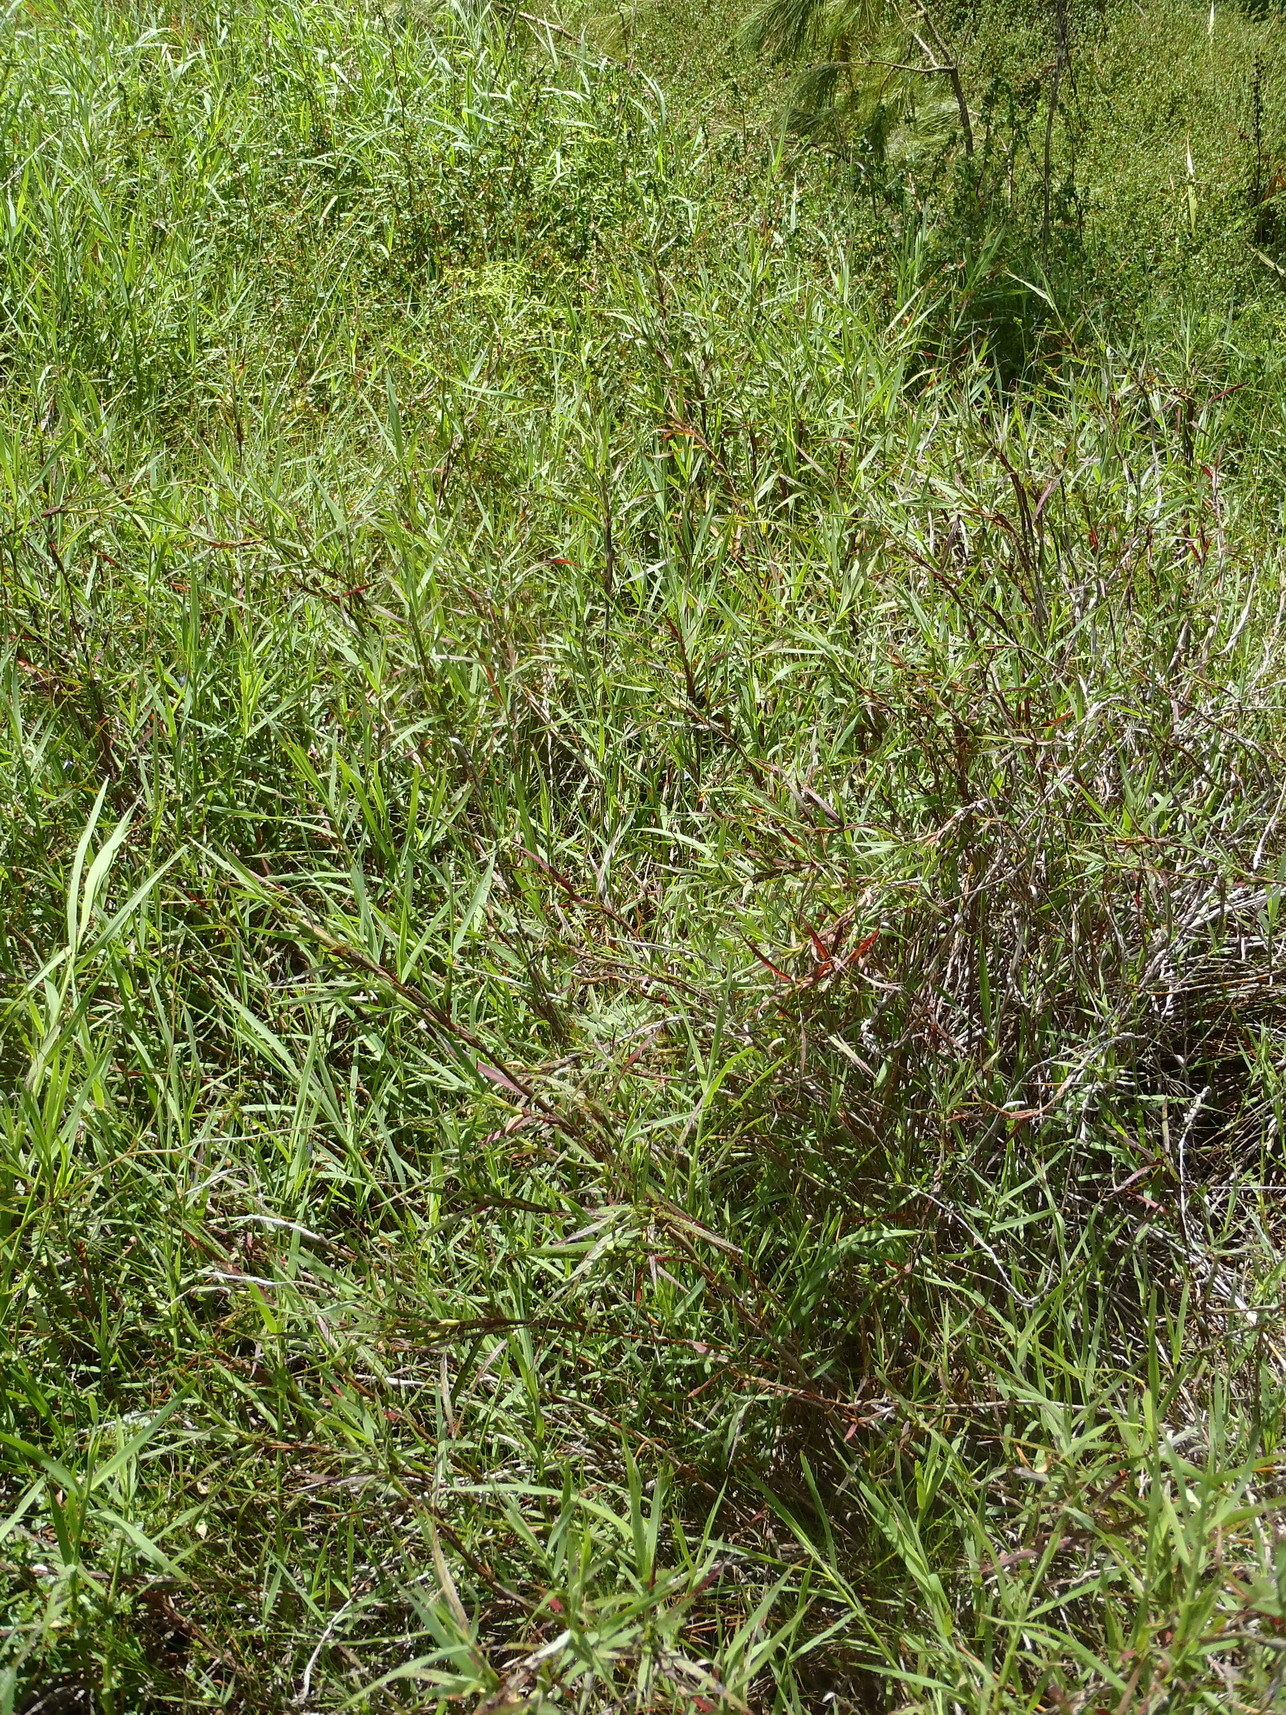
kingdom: Plantae
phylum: Tracheophyta
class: Magnoliopsida
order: Rosales
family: Rosaceae
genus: Cliffortia
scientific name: Cliffortia graminea
